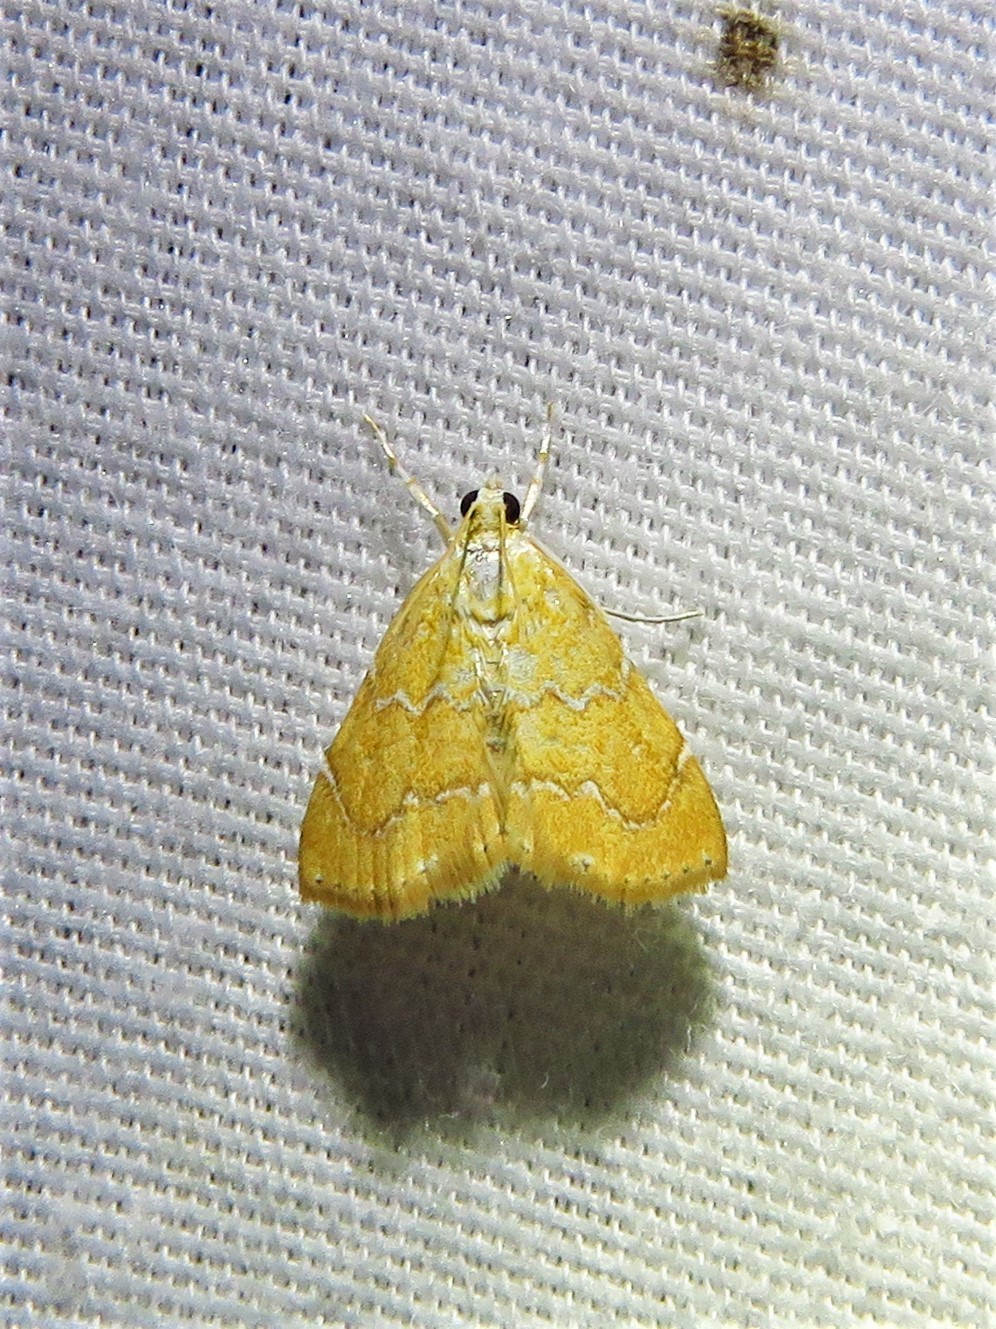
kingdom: Animalia
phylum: Arthropoda
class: Insecta
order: Lepidoptera
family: Crambidae
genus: Glaphyria
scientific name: Glaphyria sesquistrialis
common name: White-roped glaphyria
